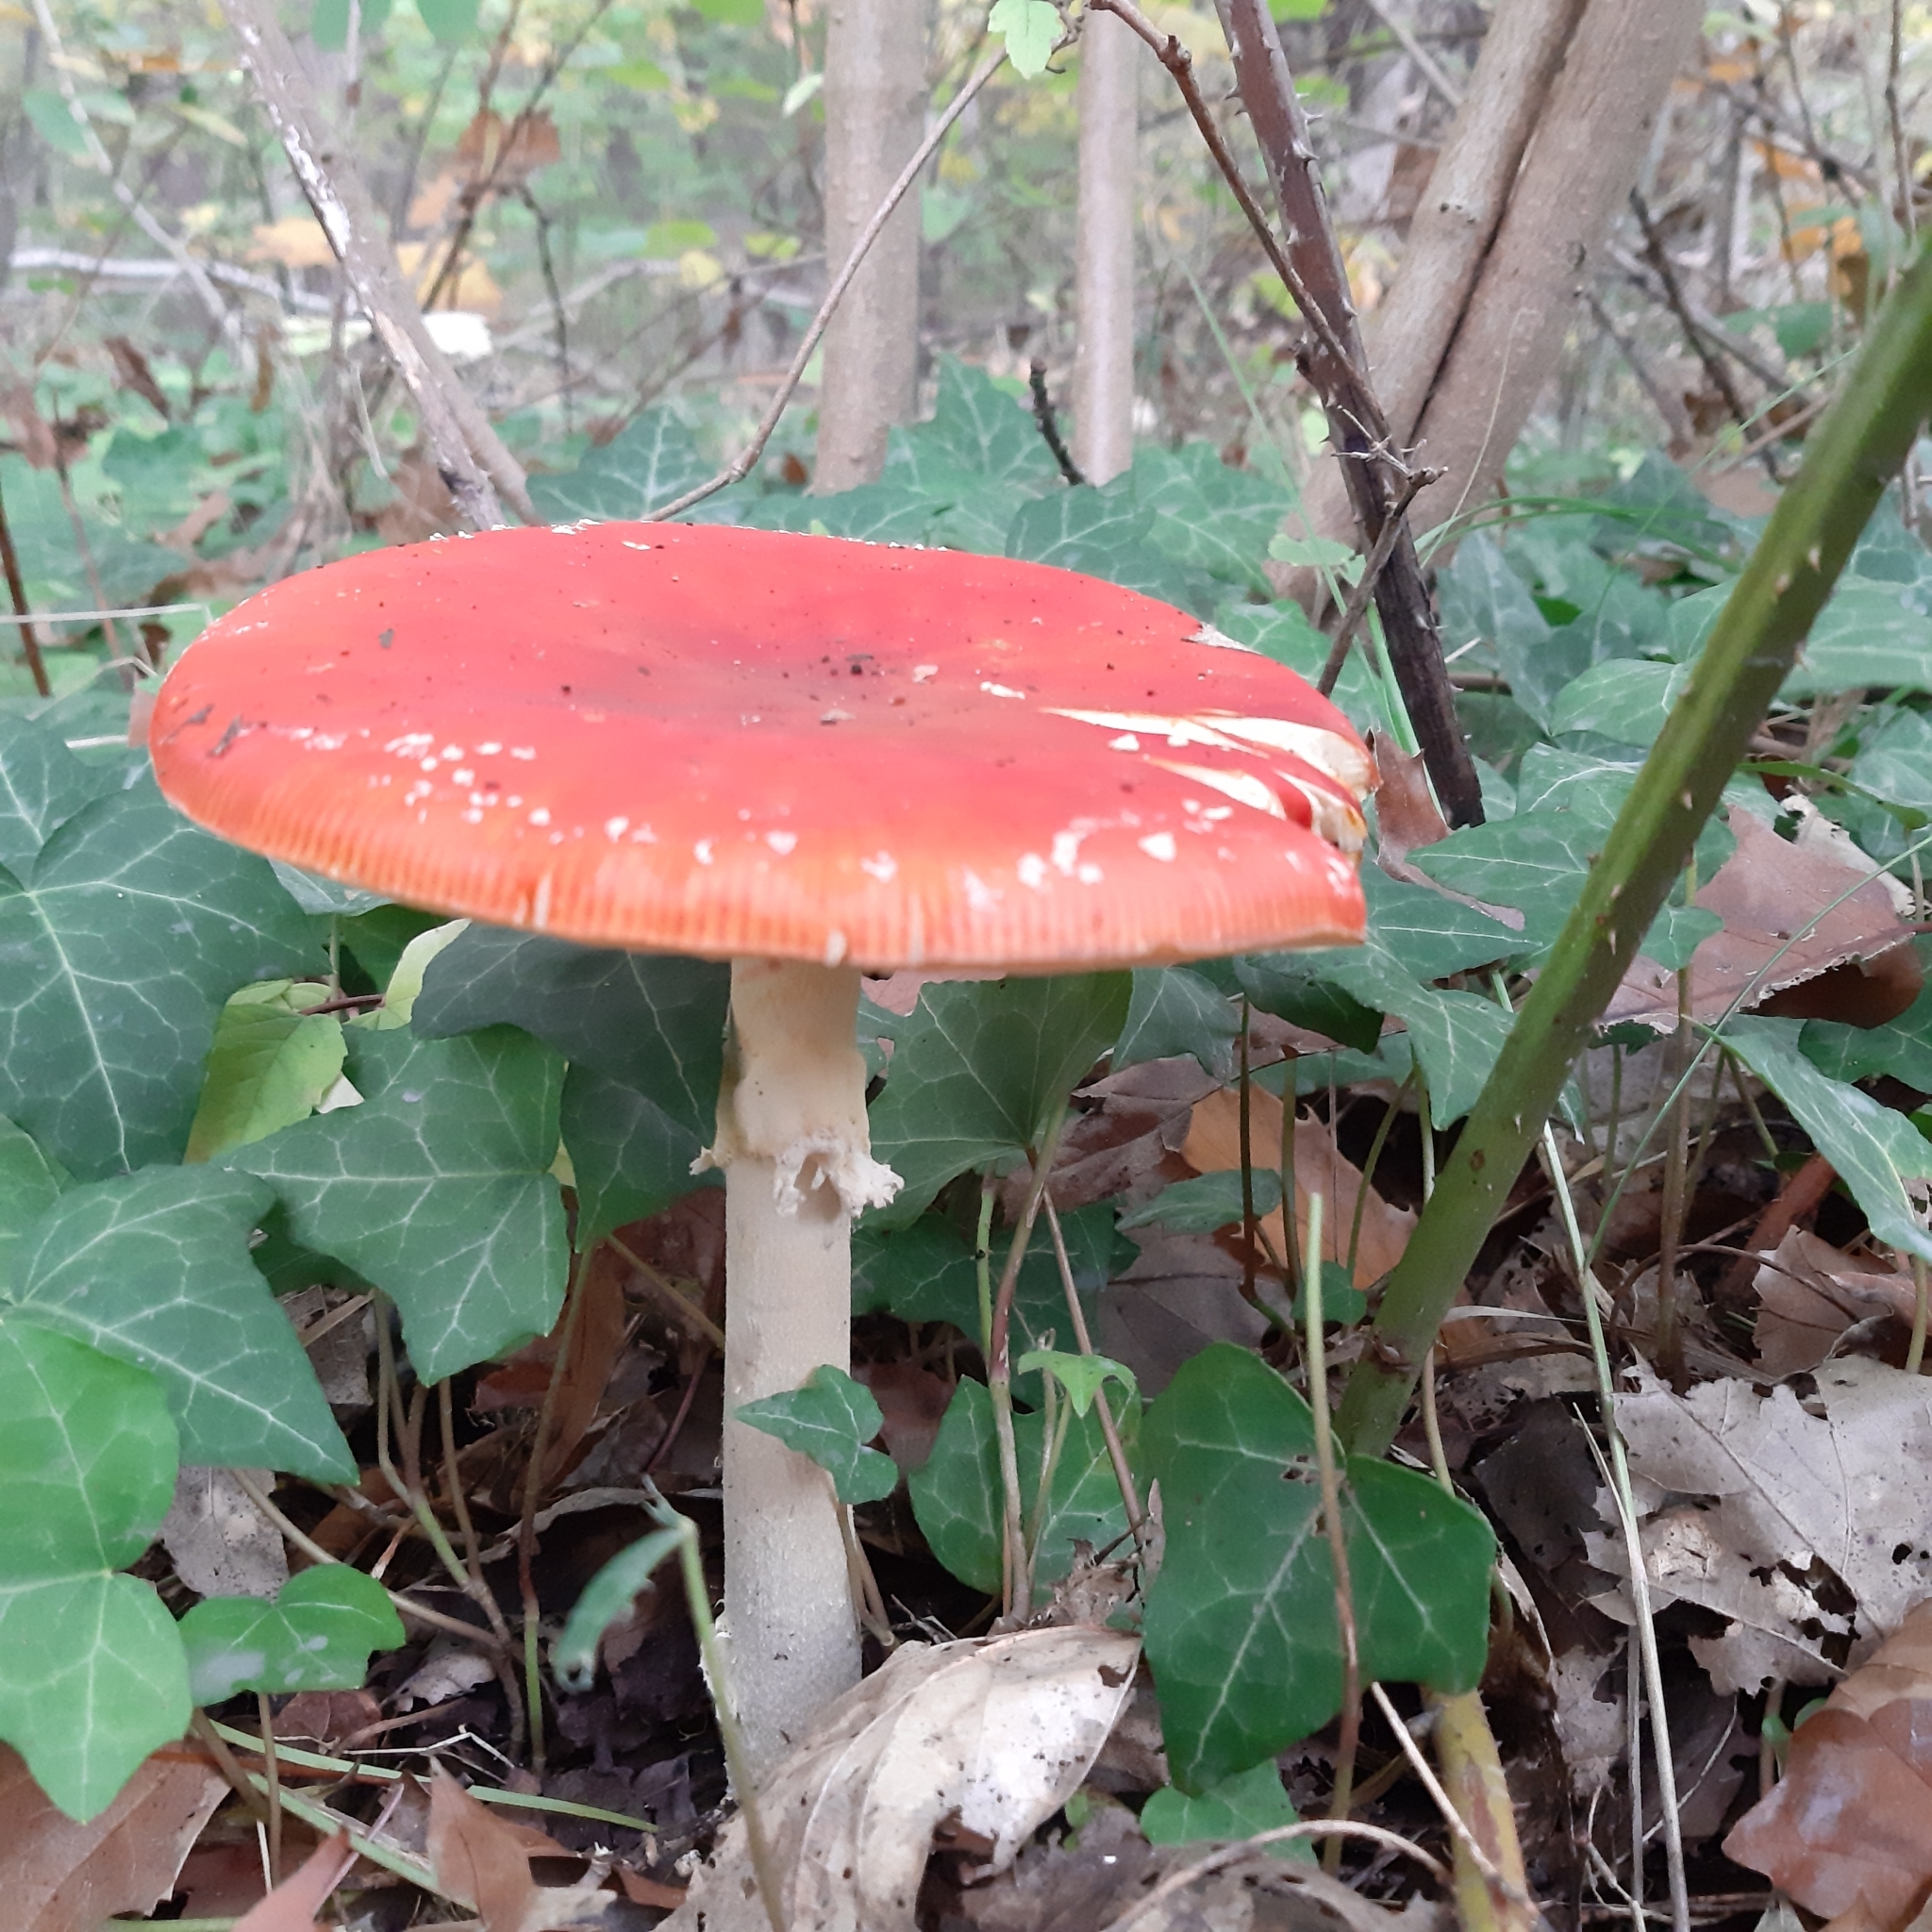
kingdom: Fungi
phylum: Basidiomycota
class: Agaricomycetes
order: Agaricales
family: Amanitaceae
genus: Amanita
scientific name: Amanita muscaria
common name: Fly agaric
